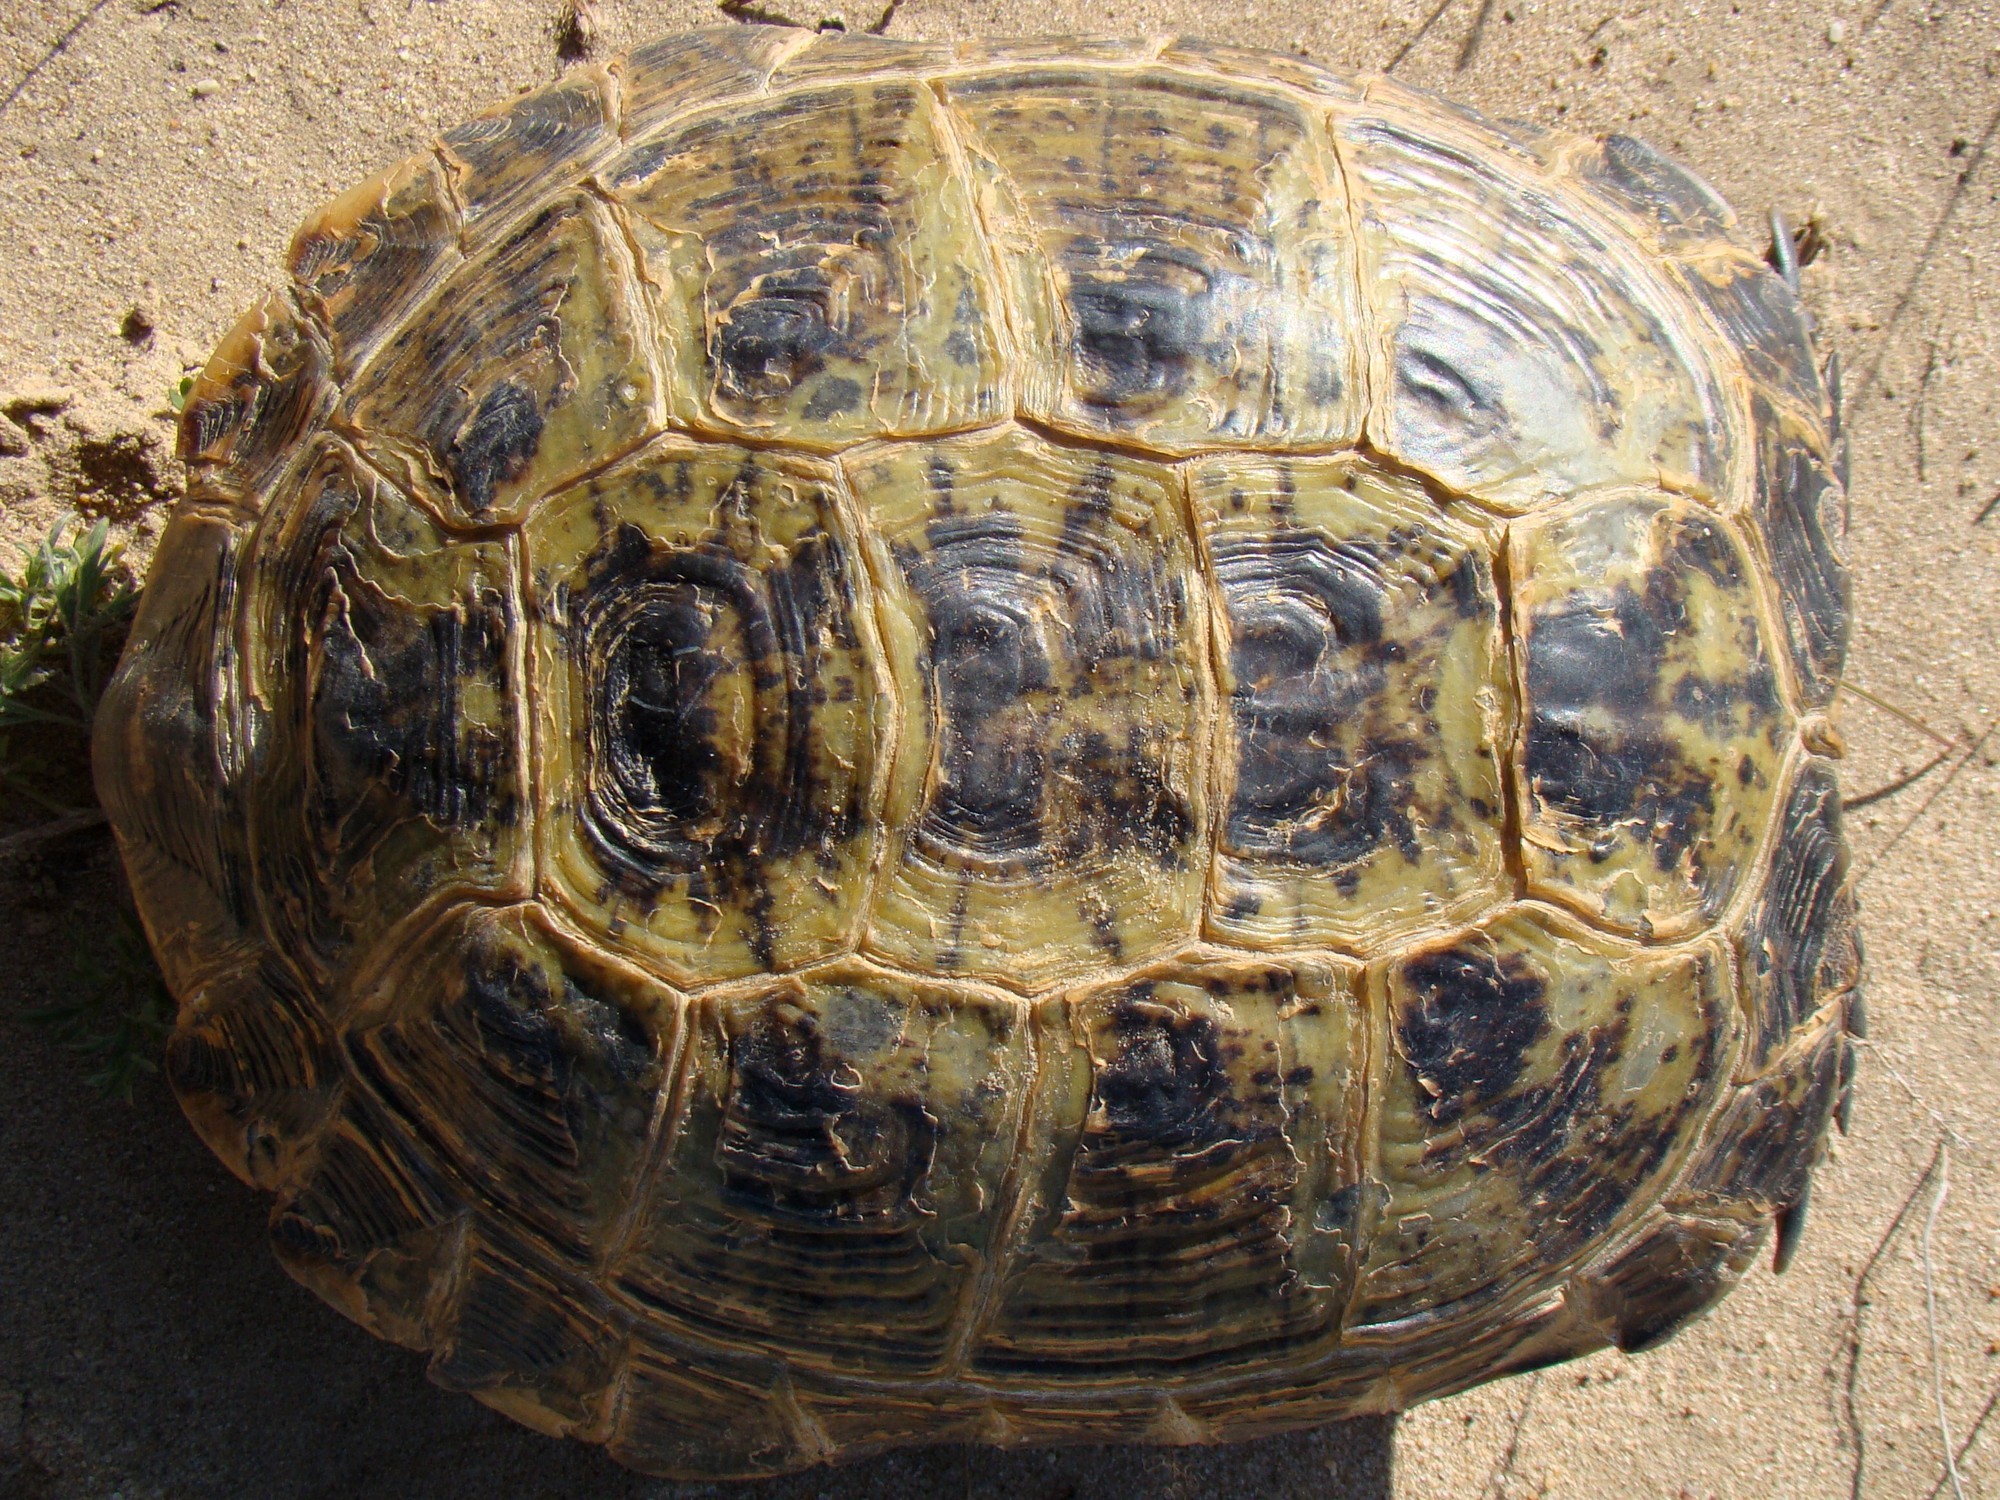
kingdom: Animalia
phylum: Chordata
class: Testudines
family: Testudinidae
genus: Testudo
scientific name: Testudo horsfieldii
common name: Central asia tortoise
